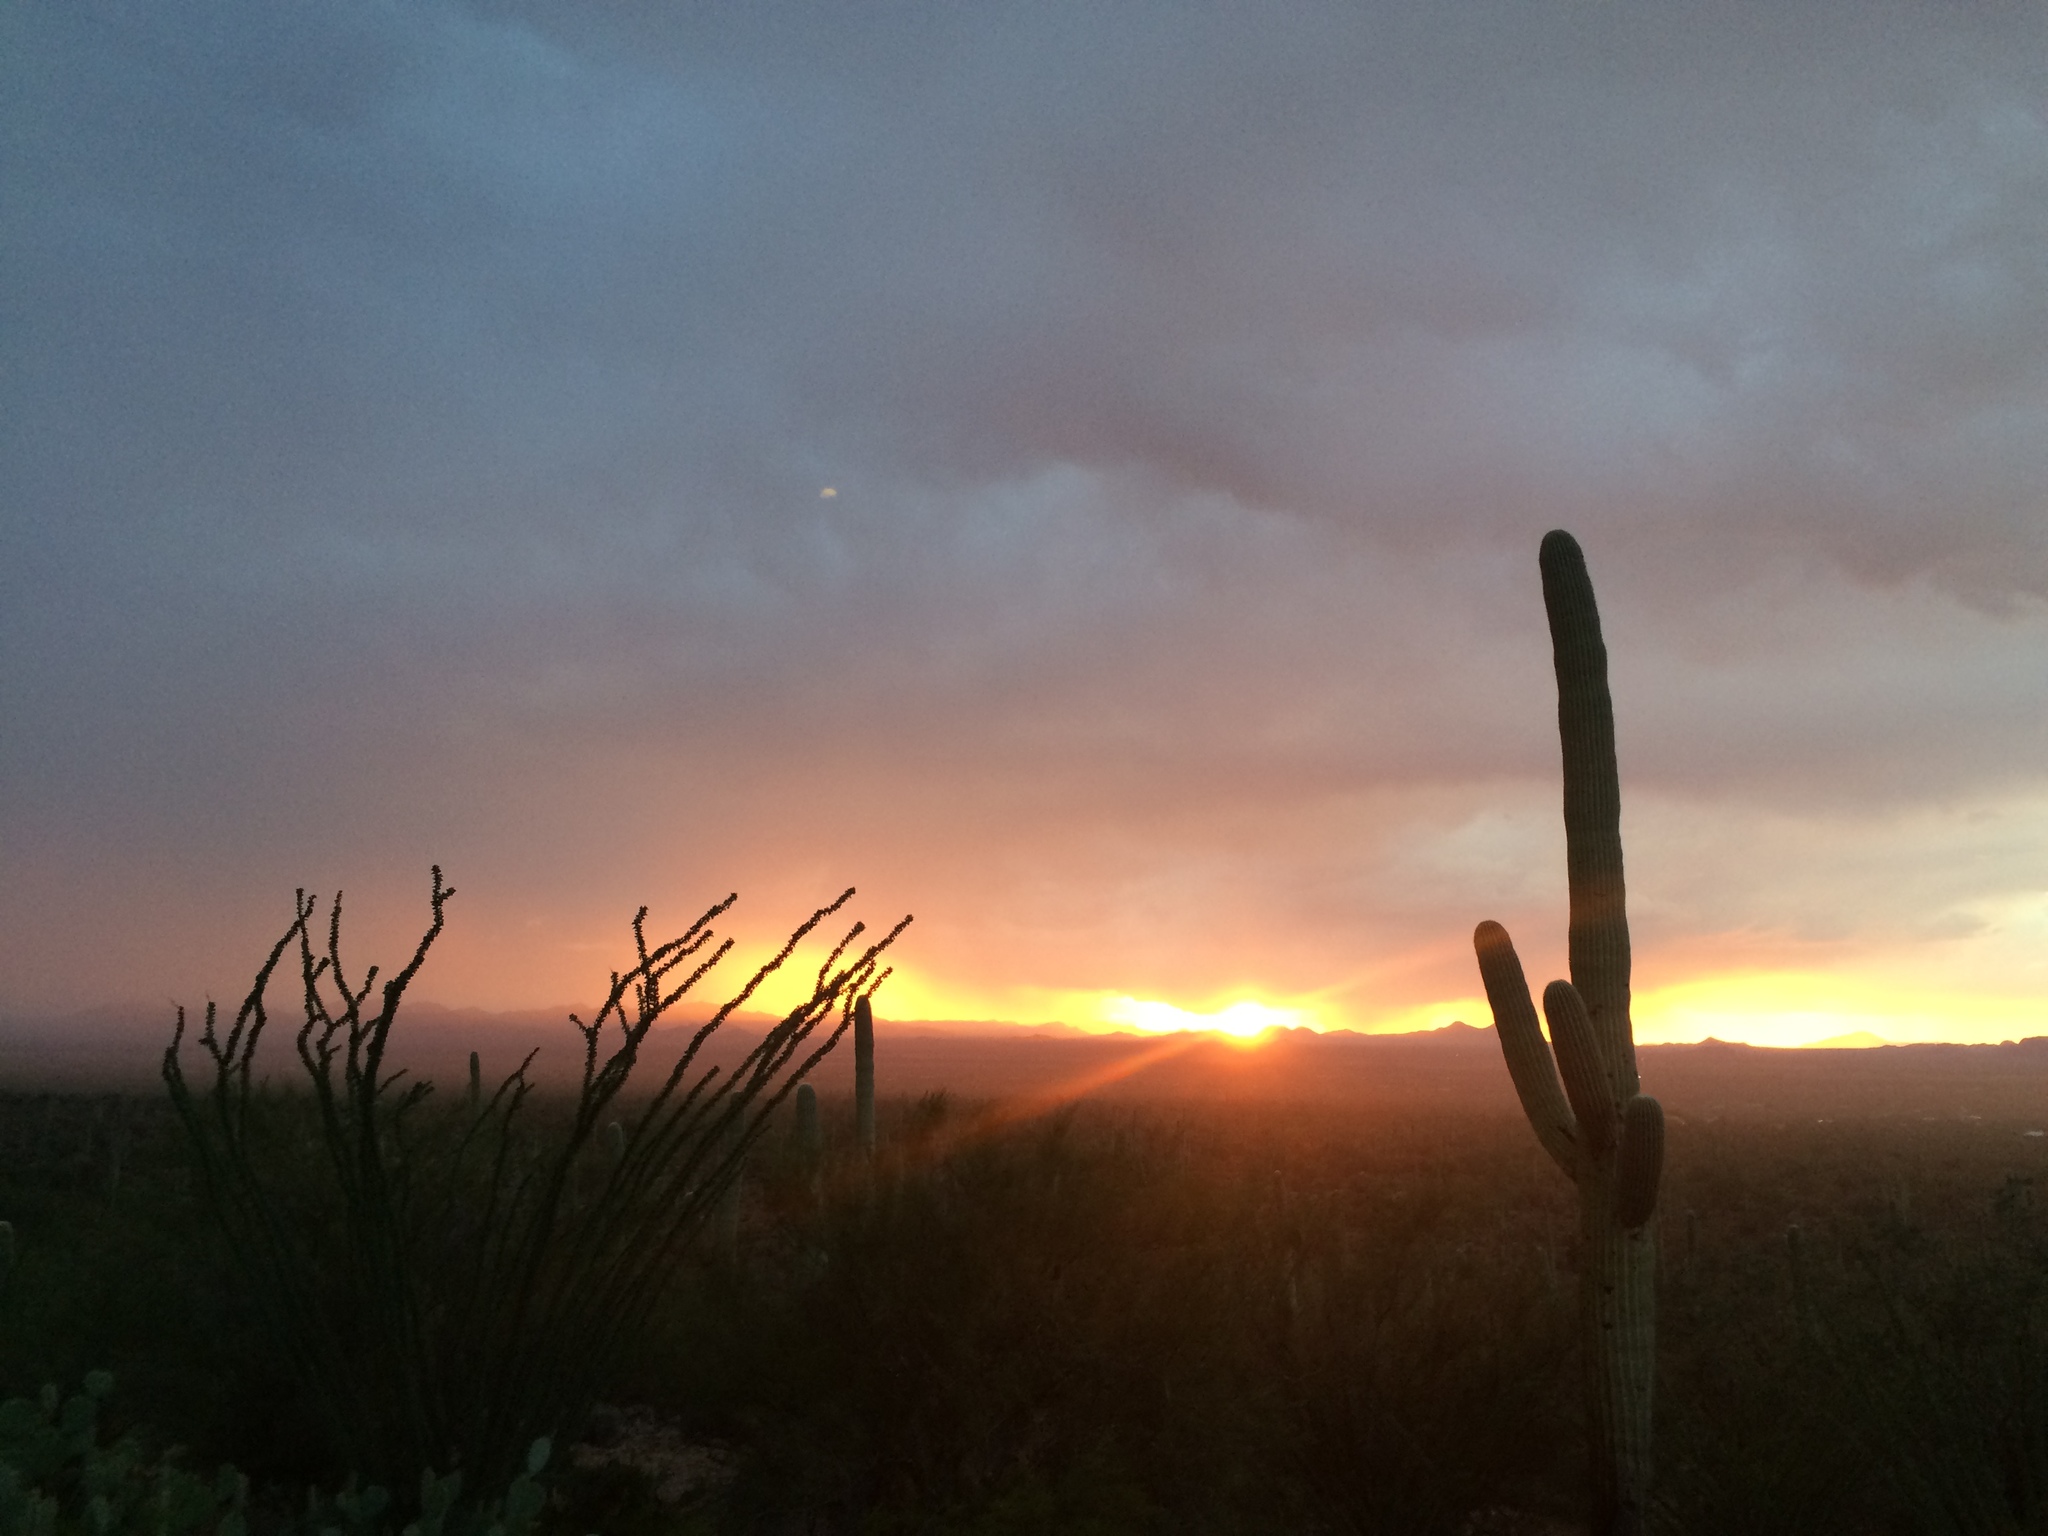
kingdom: Plantae
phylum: Tracheophyta
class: Magnoliopsida
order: Ericales
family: Fouquieriaceae
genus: Fouquieria
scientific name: Fouquieria splendens
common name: Vine-cactus
